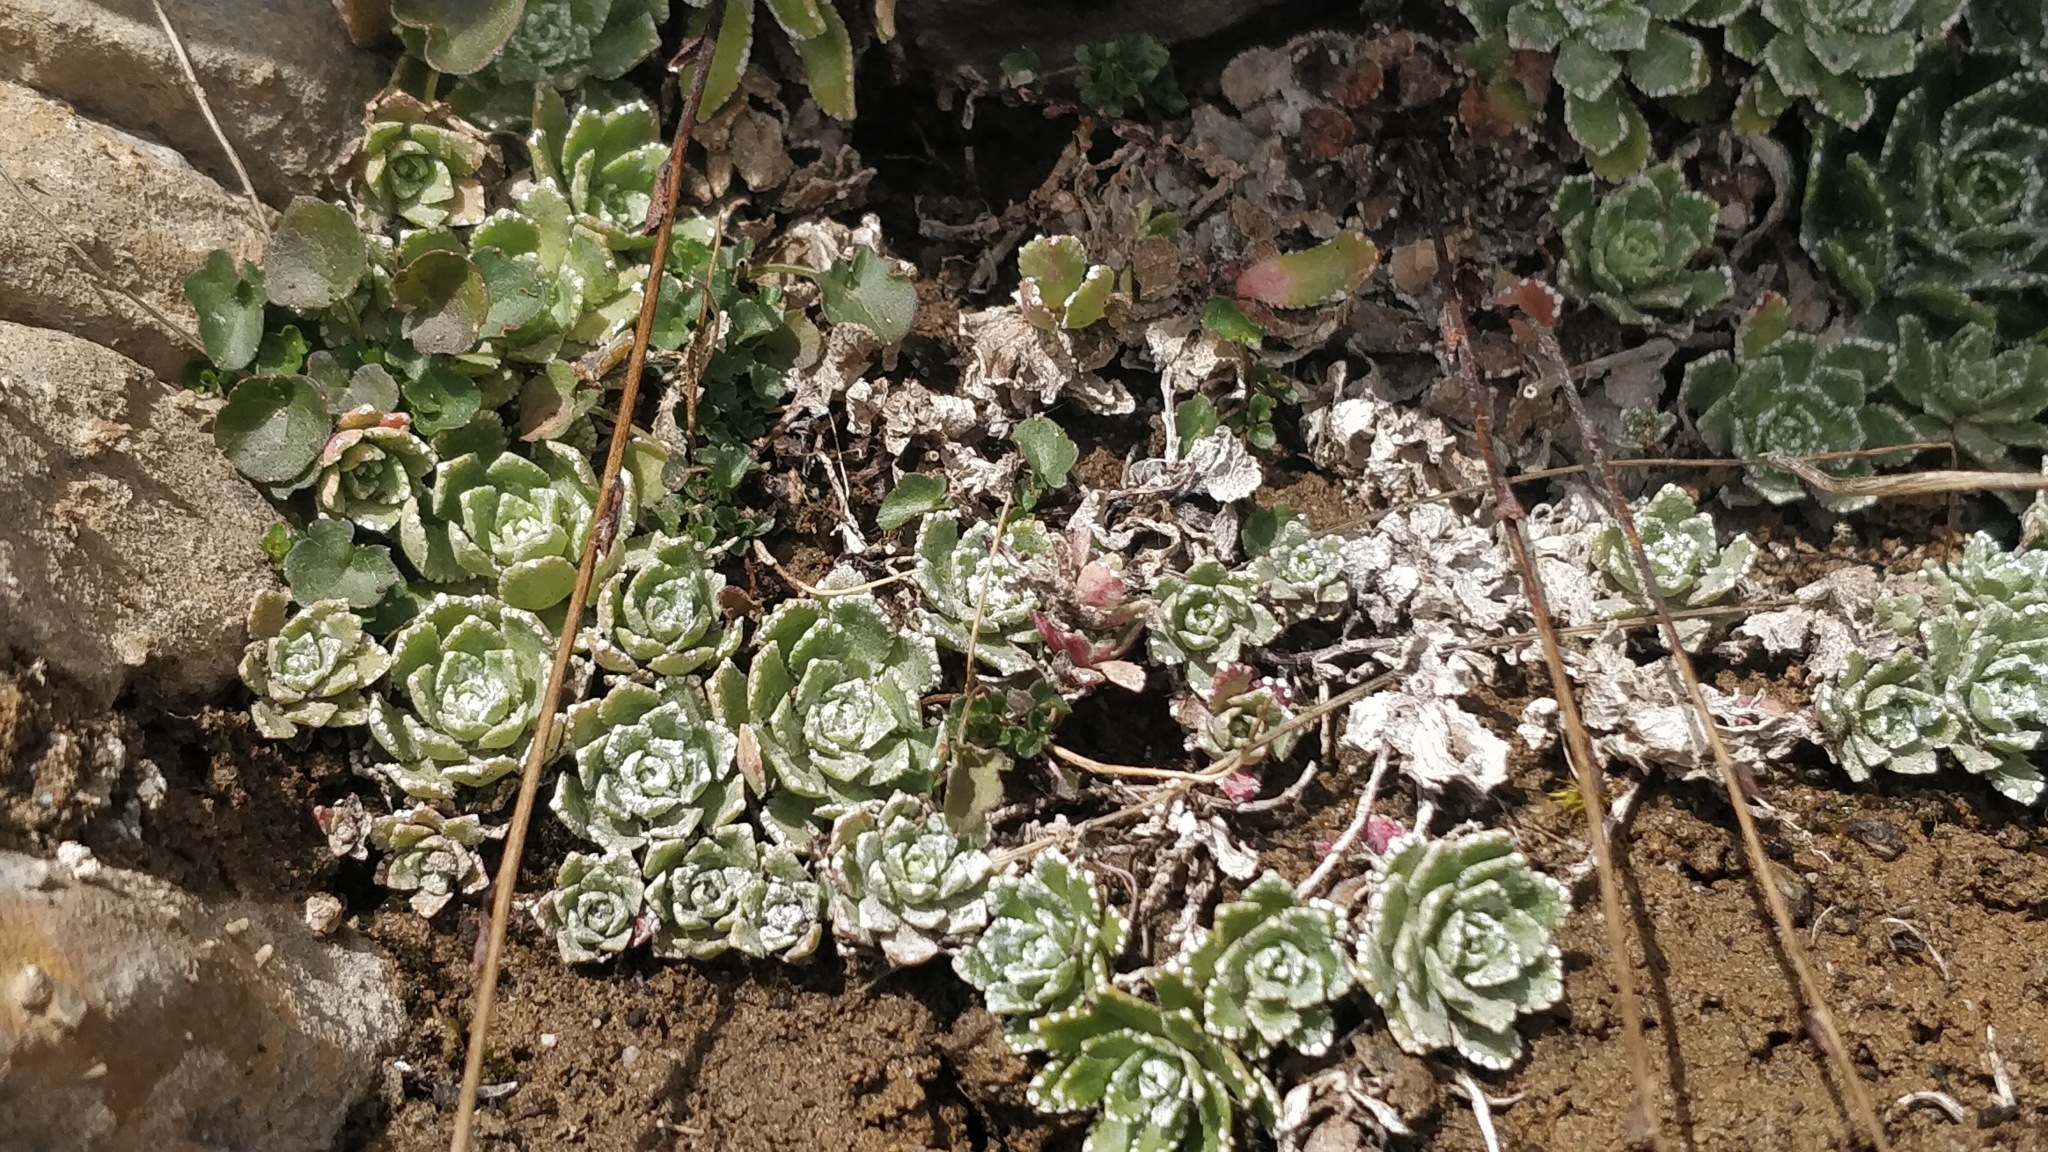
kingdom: Plantae
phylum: Tracheophyta
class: Magnoliopsida
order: Saxifragales
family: Saxifragaceae
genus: Saxifraga
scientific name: Saxifraga paniculata
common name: Livelong saxifrage
